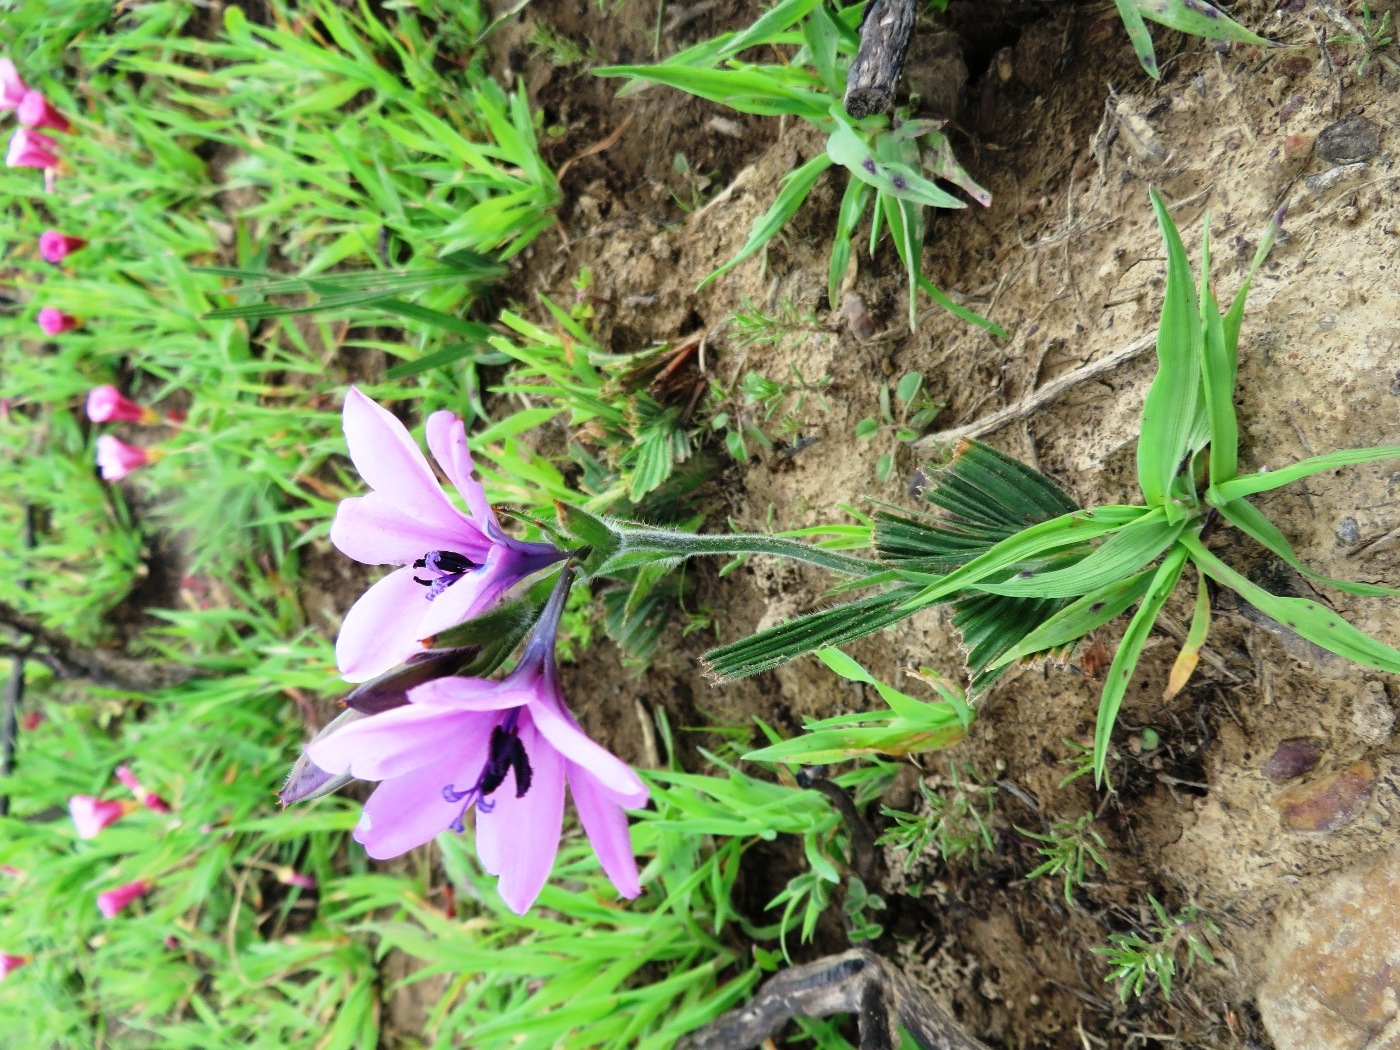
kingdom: Plantae
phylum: Tracheophyta
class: Liliopsida
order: Asparagales
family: Iridaceae
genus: Babiana
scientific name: Babiana purpurea
